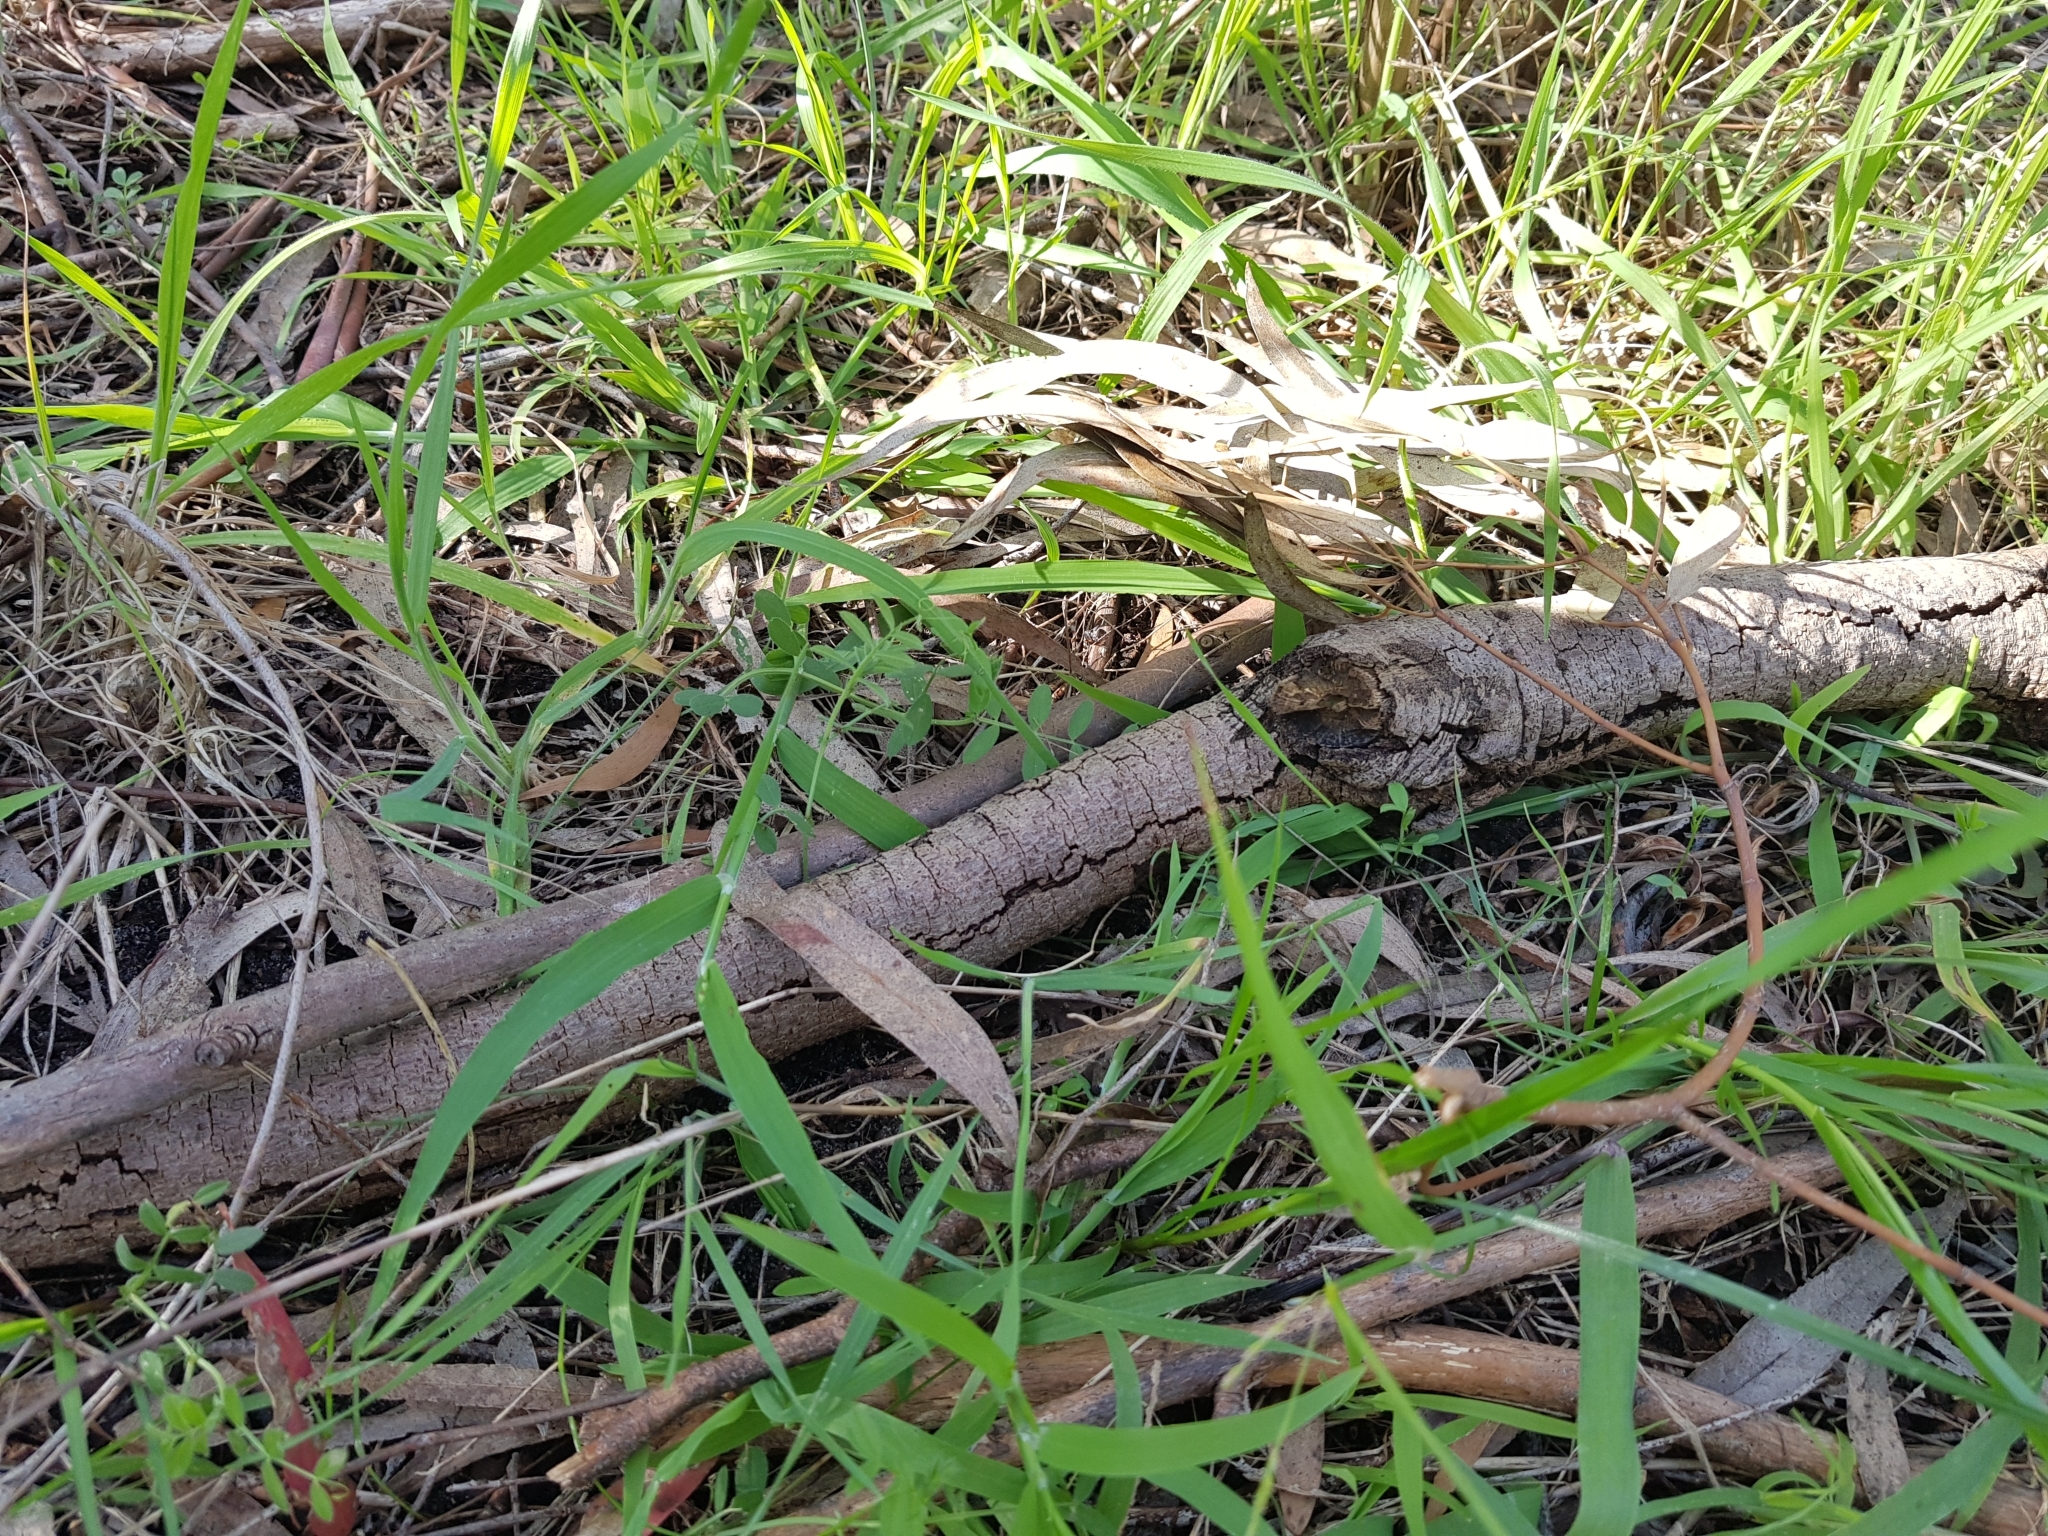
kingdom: Animalia
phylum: Arthropoda
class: Malacostraca
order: Isopoda
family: Armadillidiidae
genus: Armadillidium
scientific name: Armadillidium vulgare
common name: Common pill woodlouse
